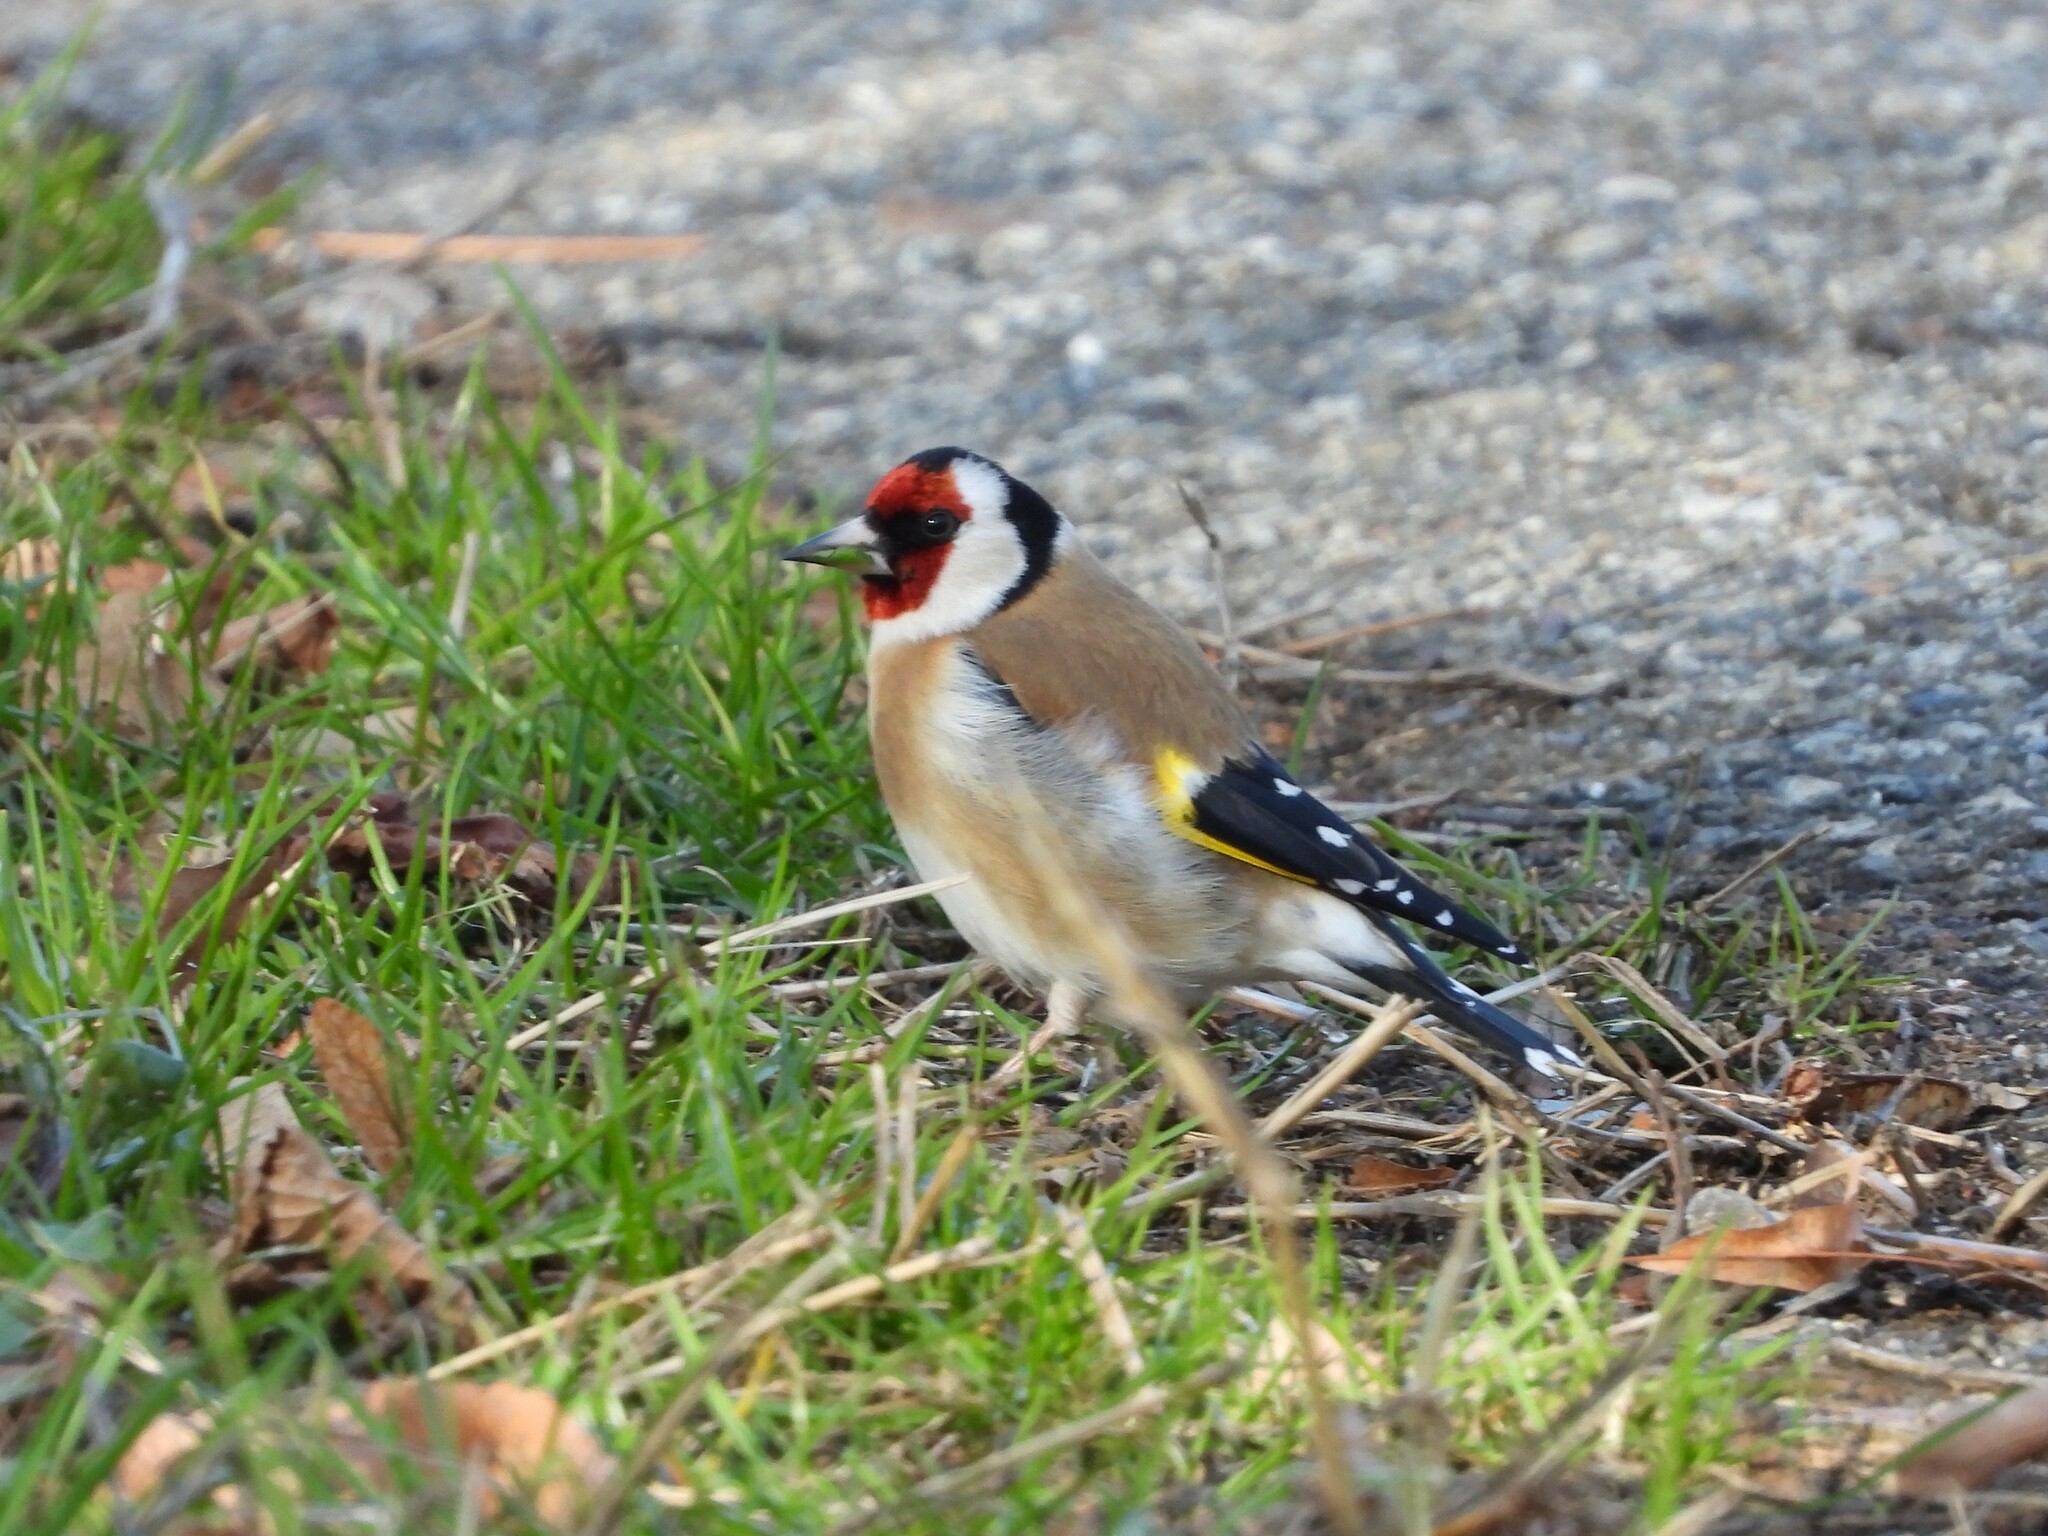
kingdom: Animalia
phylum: Chordata
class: Aves
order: Passeriformes
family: Fringillidae
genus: Carduelis
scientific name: Carduelis carduelis
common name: European goldfinch
